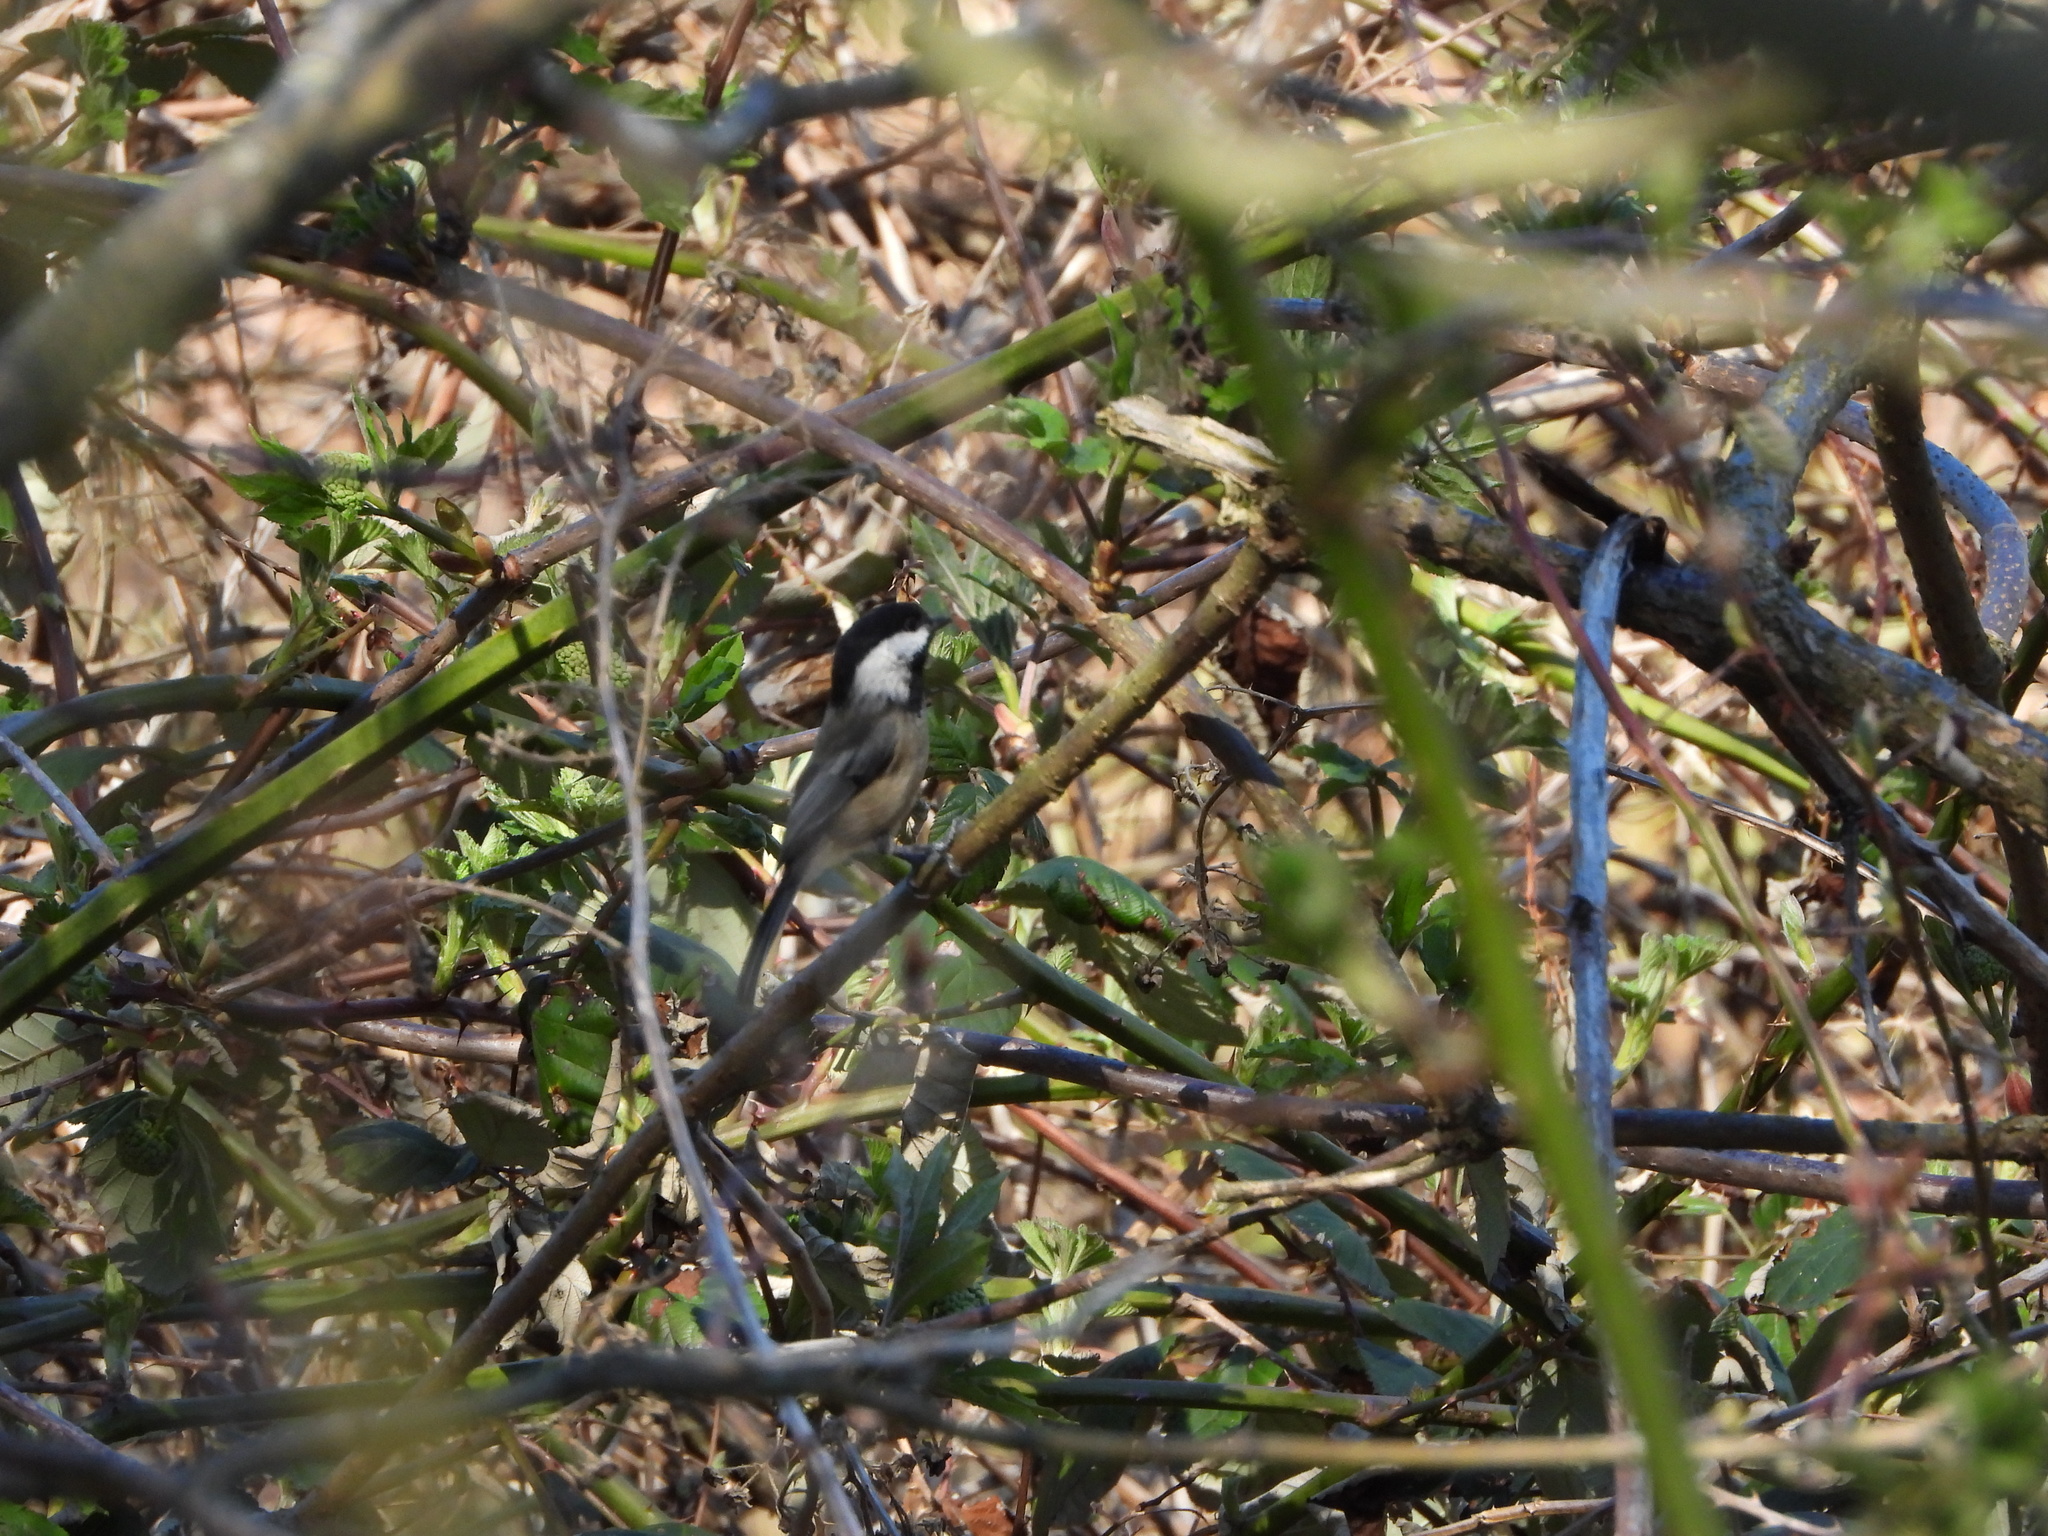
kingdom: Animalia
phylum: Chordata
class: Aves
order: Passeriformes
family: Paridae
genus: Poecile
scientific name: Poecile atricapillus
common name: Black-capped chickadee
